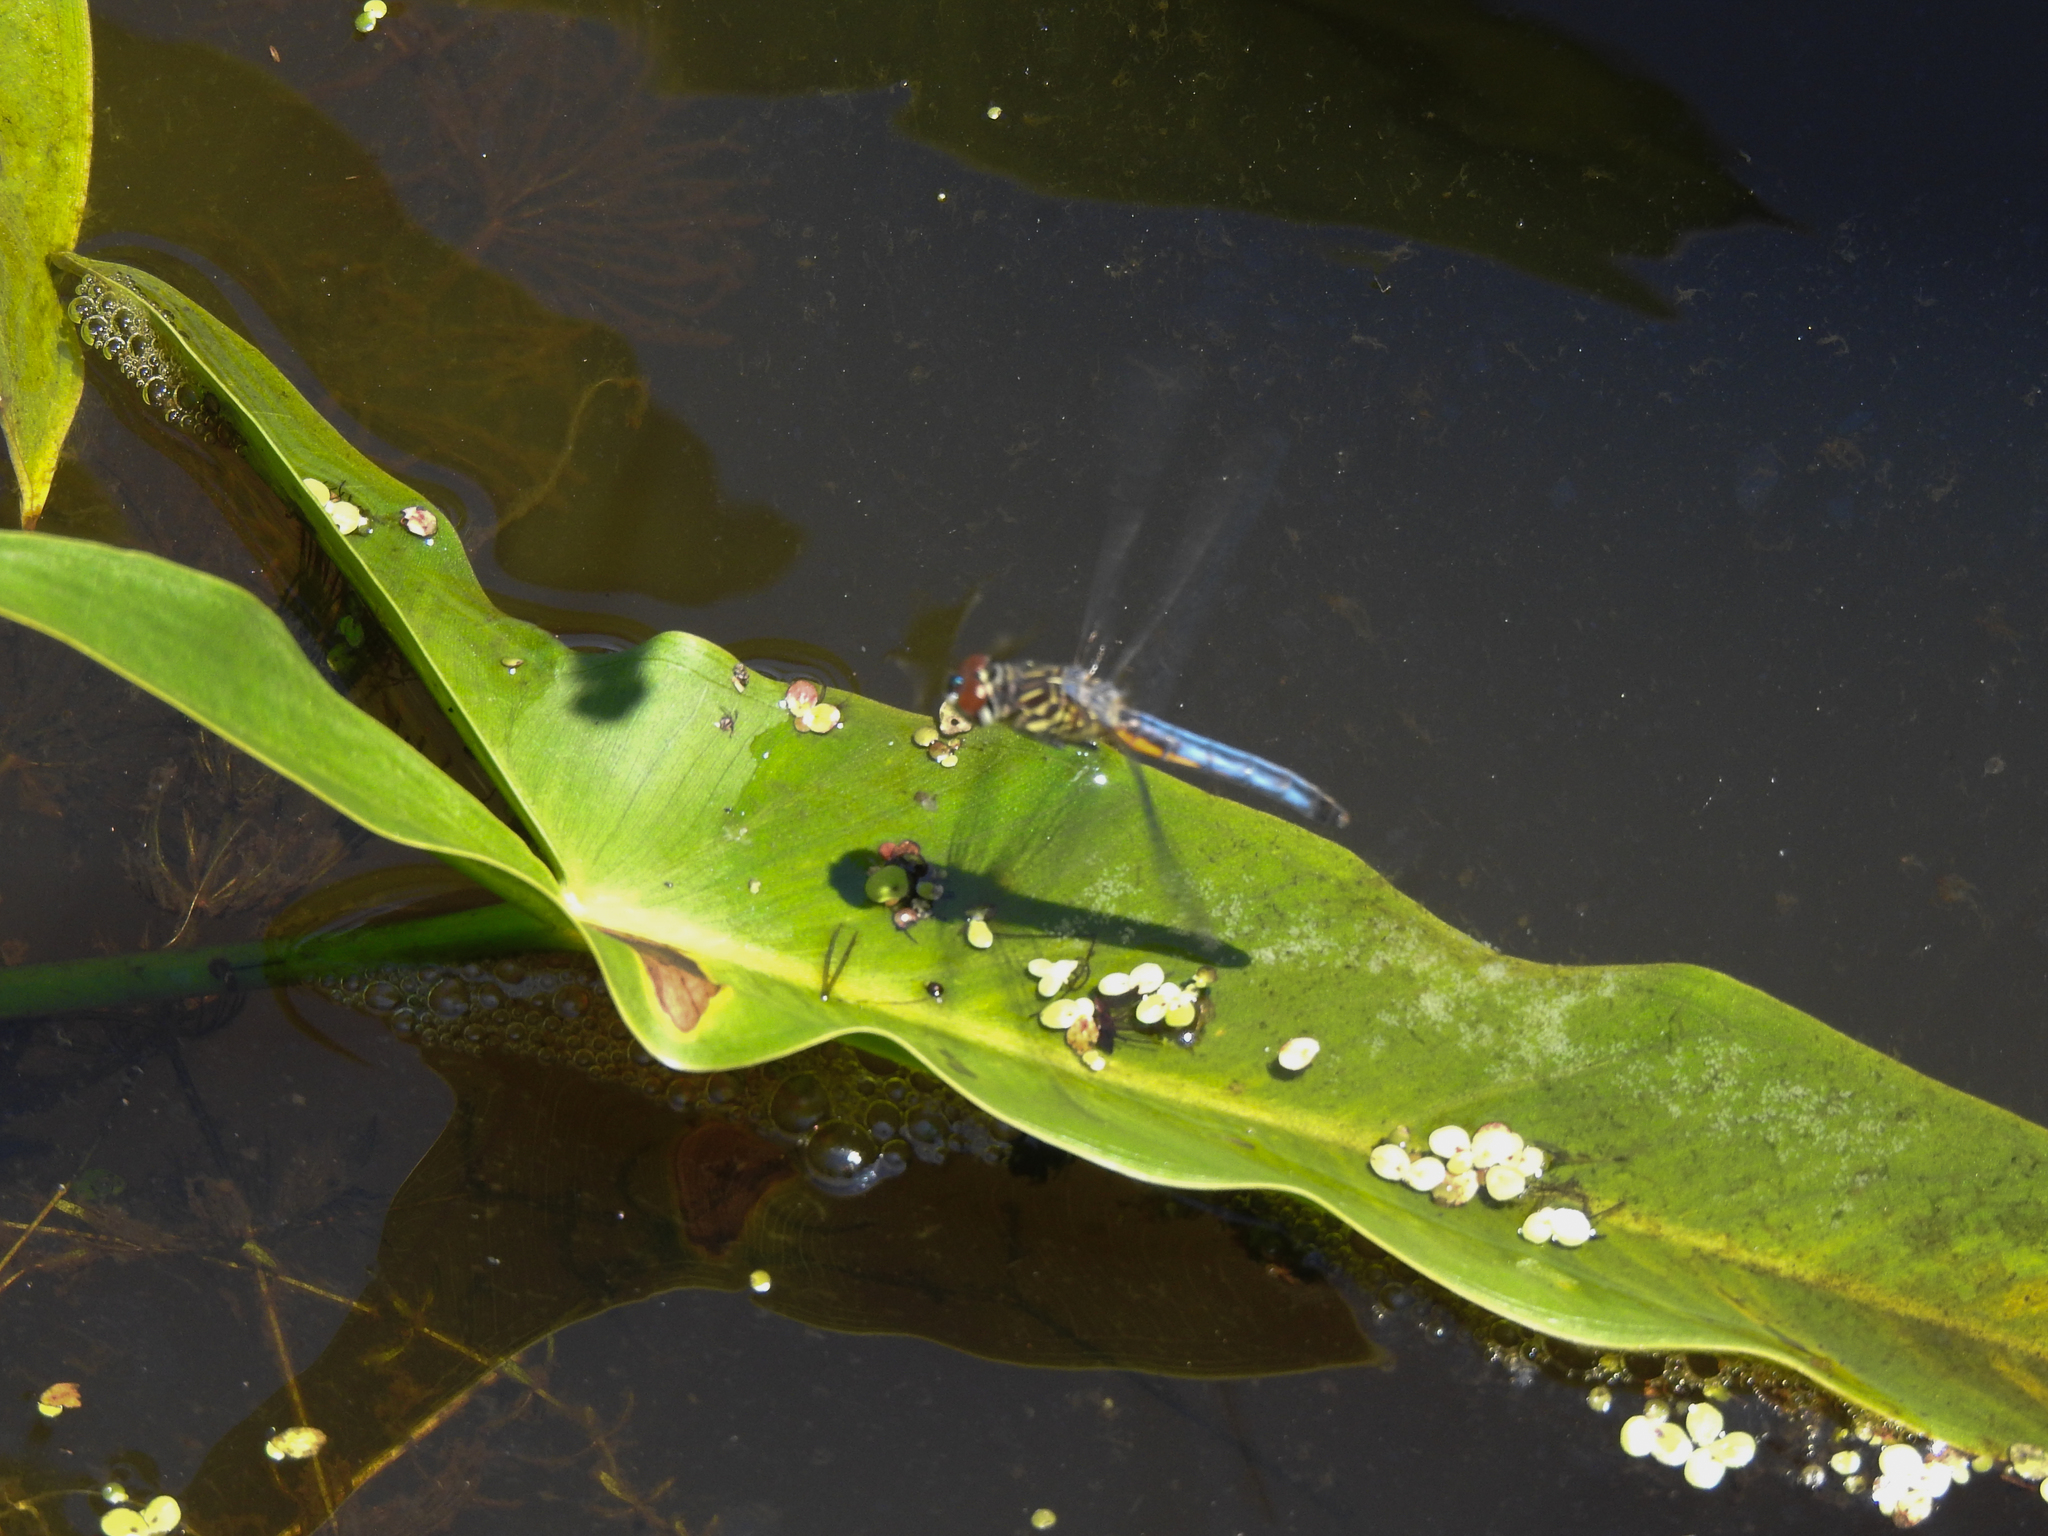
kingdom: Animalia
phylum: Arthropoda
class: Insecta
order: Odonata
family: Libellulidae
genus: Pachydiplax
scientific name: Pachydiplax longipennis
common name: Blue dasher
